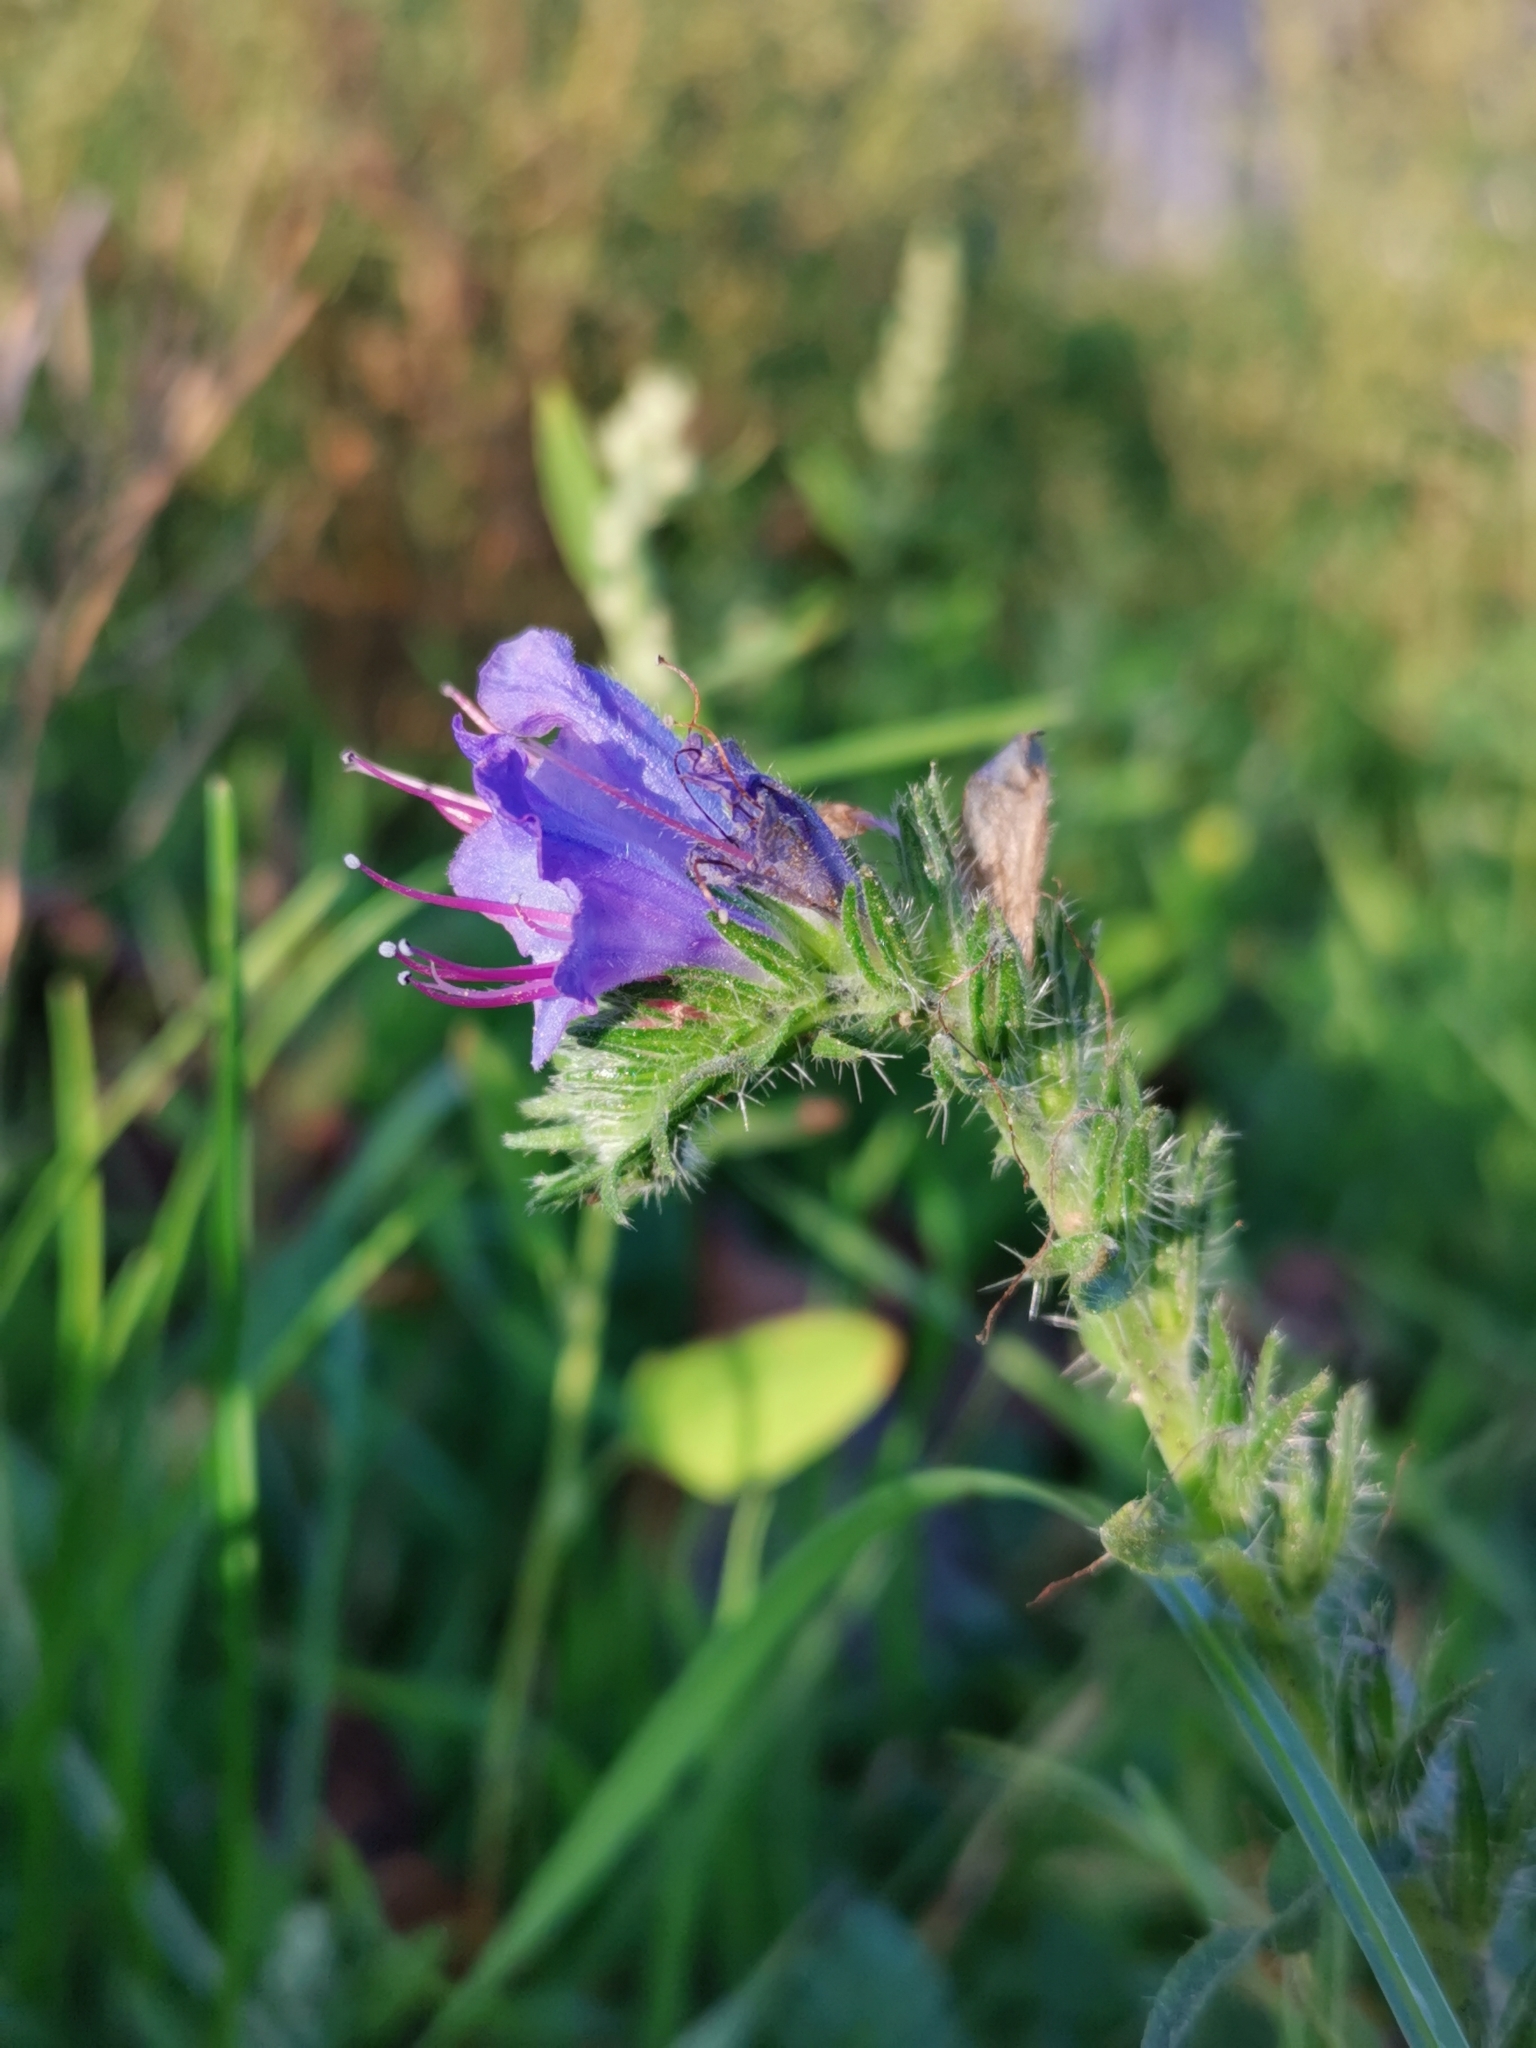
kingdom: Plantae
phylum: Tracheophyta
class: Magnoliopsida
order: Boraginales
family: Boraginaceae
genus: Echium
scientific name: Echium vulgare
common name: Common viper's bugloss
